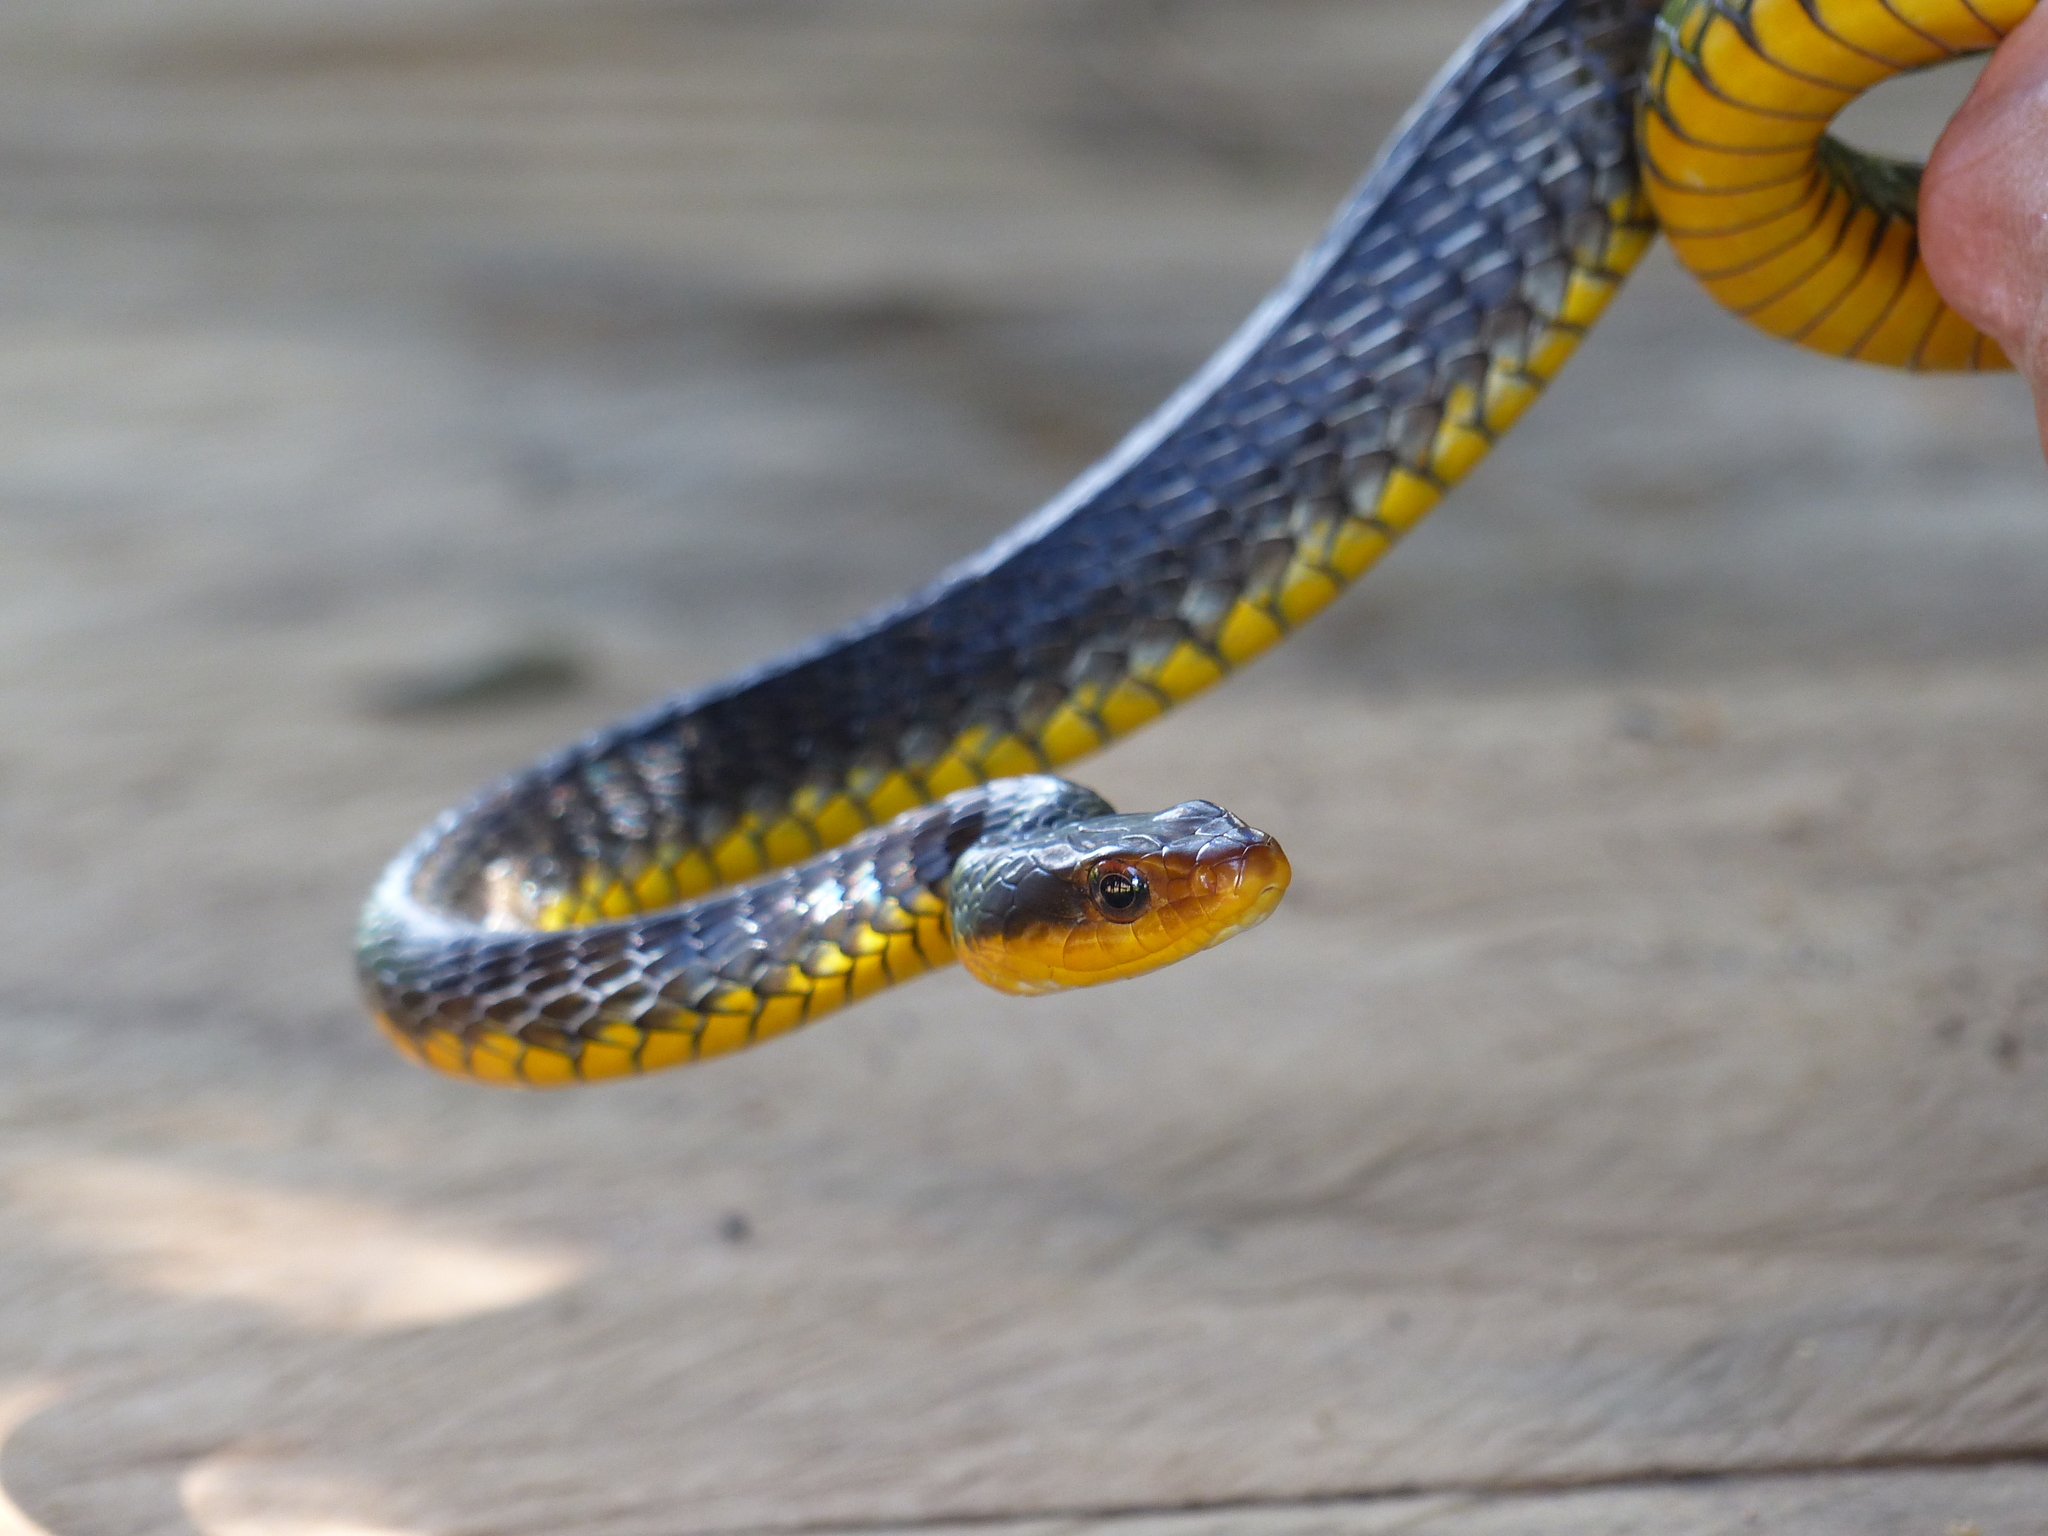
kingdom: Animalia
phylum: Chordata
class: Squamata
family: Colubridae
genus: Chironius
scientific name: Chironius carinatus
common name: Sipo
